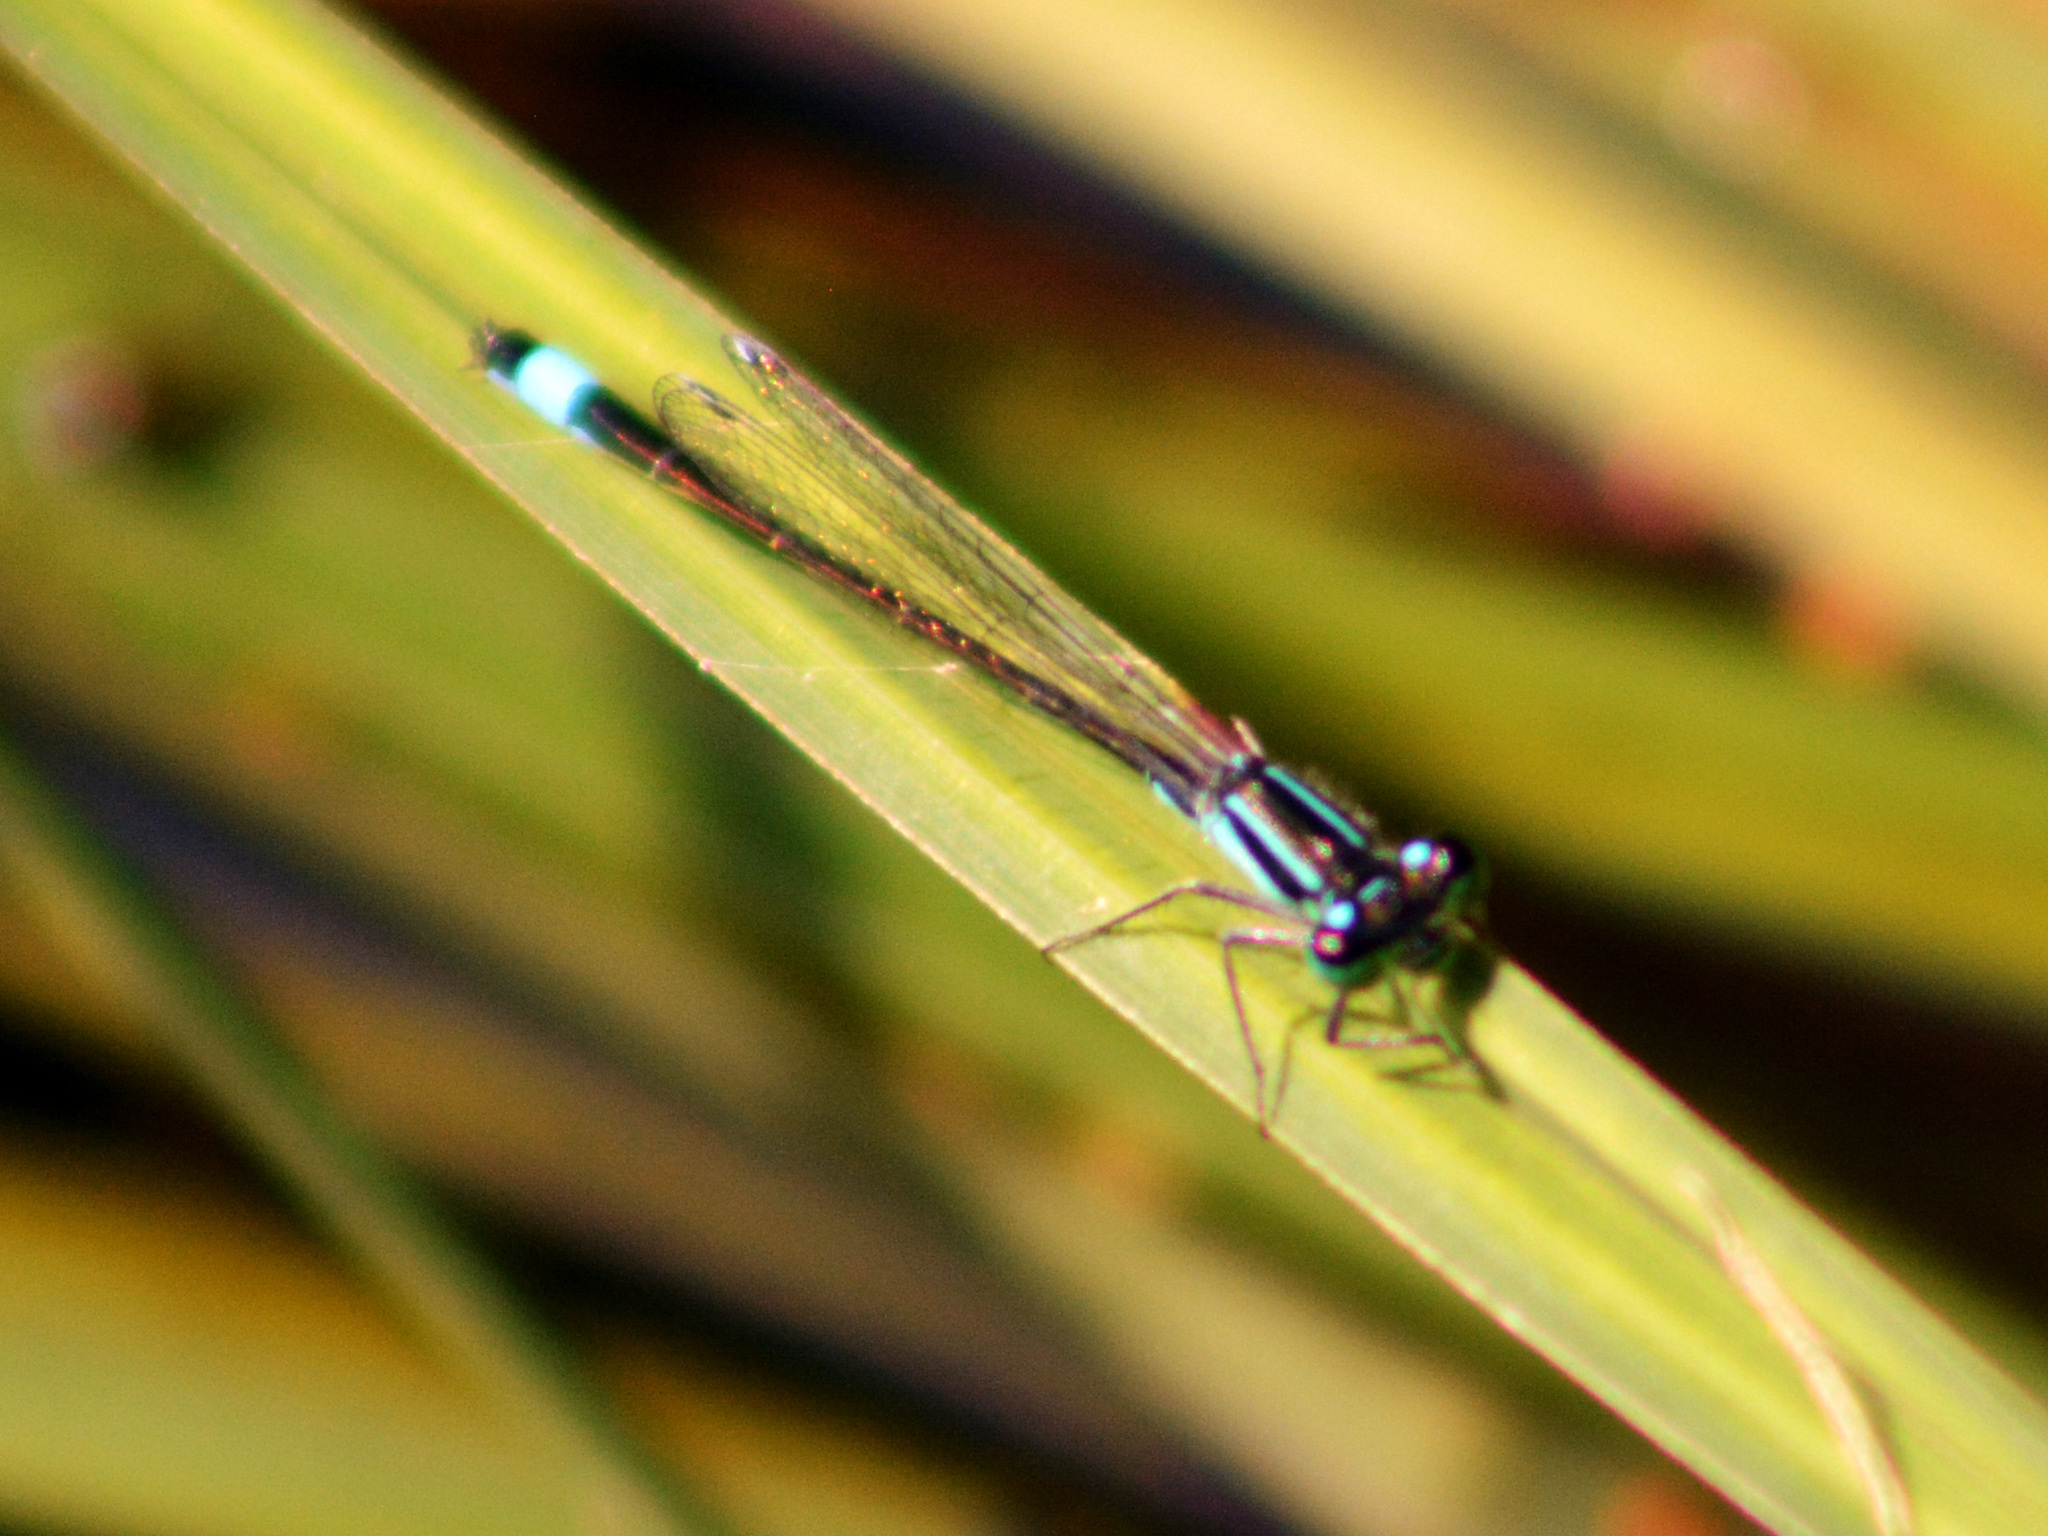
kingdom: Animalia
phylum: Arthropoda
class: Insecta
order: Odonata
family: Coenagrionidae
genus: Ischnura
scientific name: Ischnura elegans
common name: Blue-tailed damselfly
